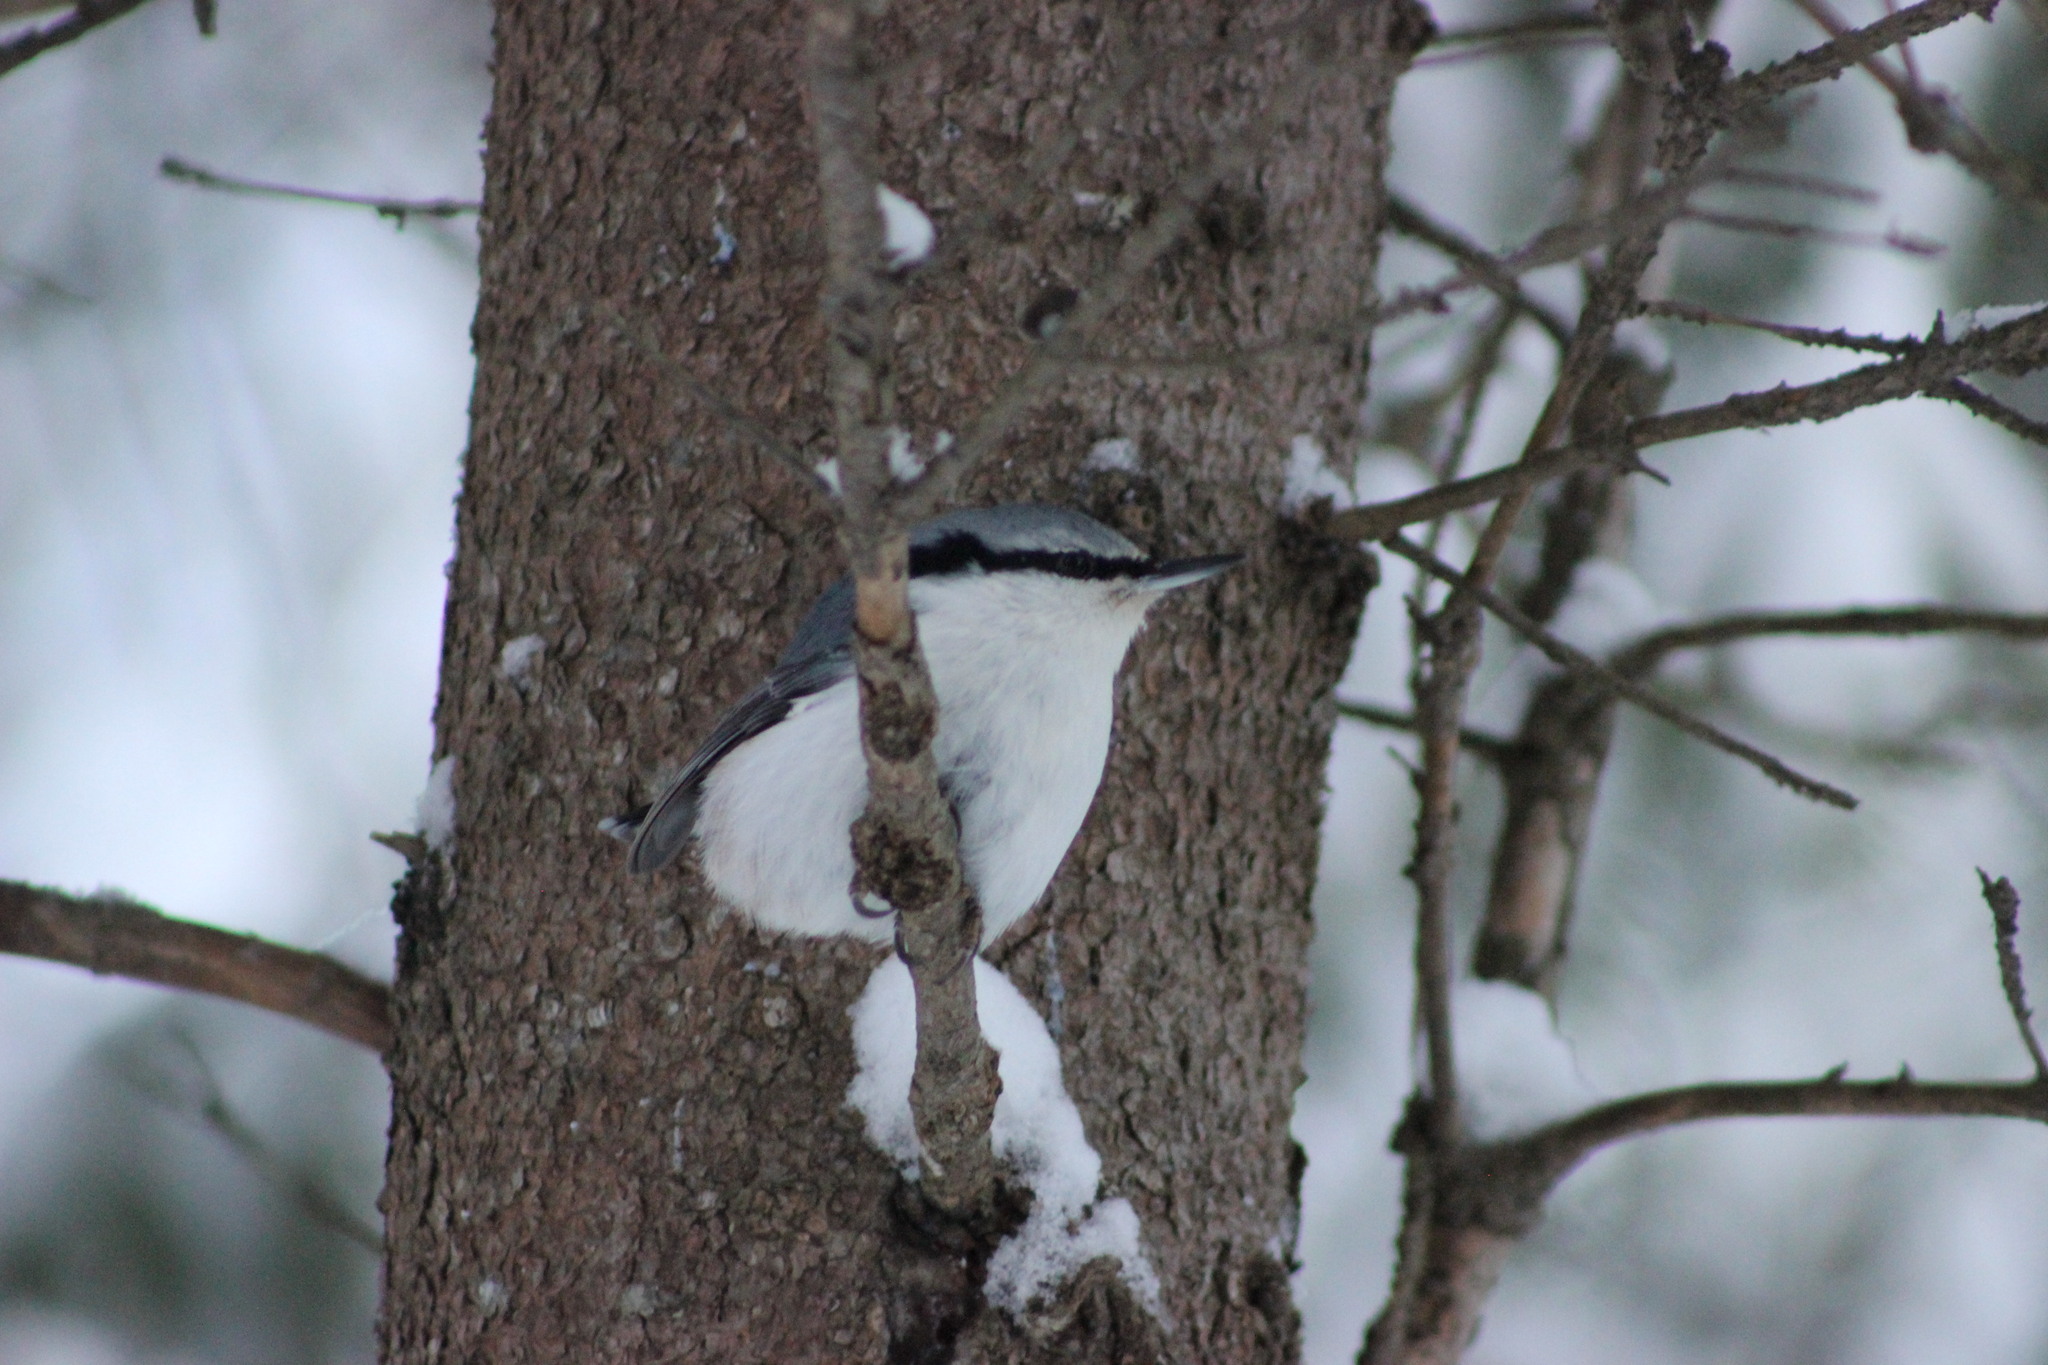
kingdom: Animalia
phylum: Chordata
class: Aves
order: Passeriformes
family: Sittidae
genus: Sitta
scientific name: Sitta europaea
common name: Eurasian nuthatch
